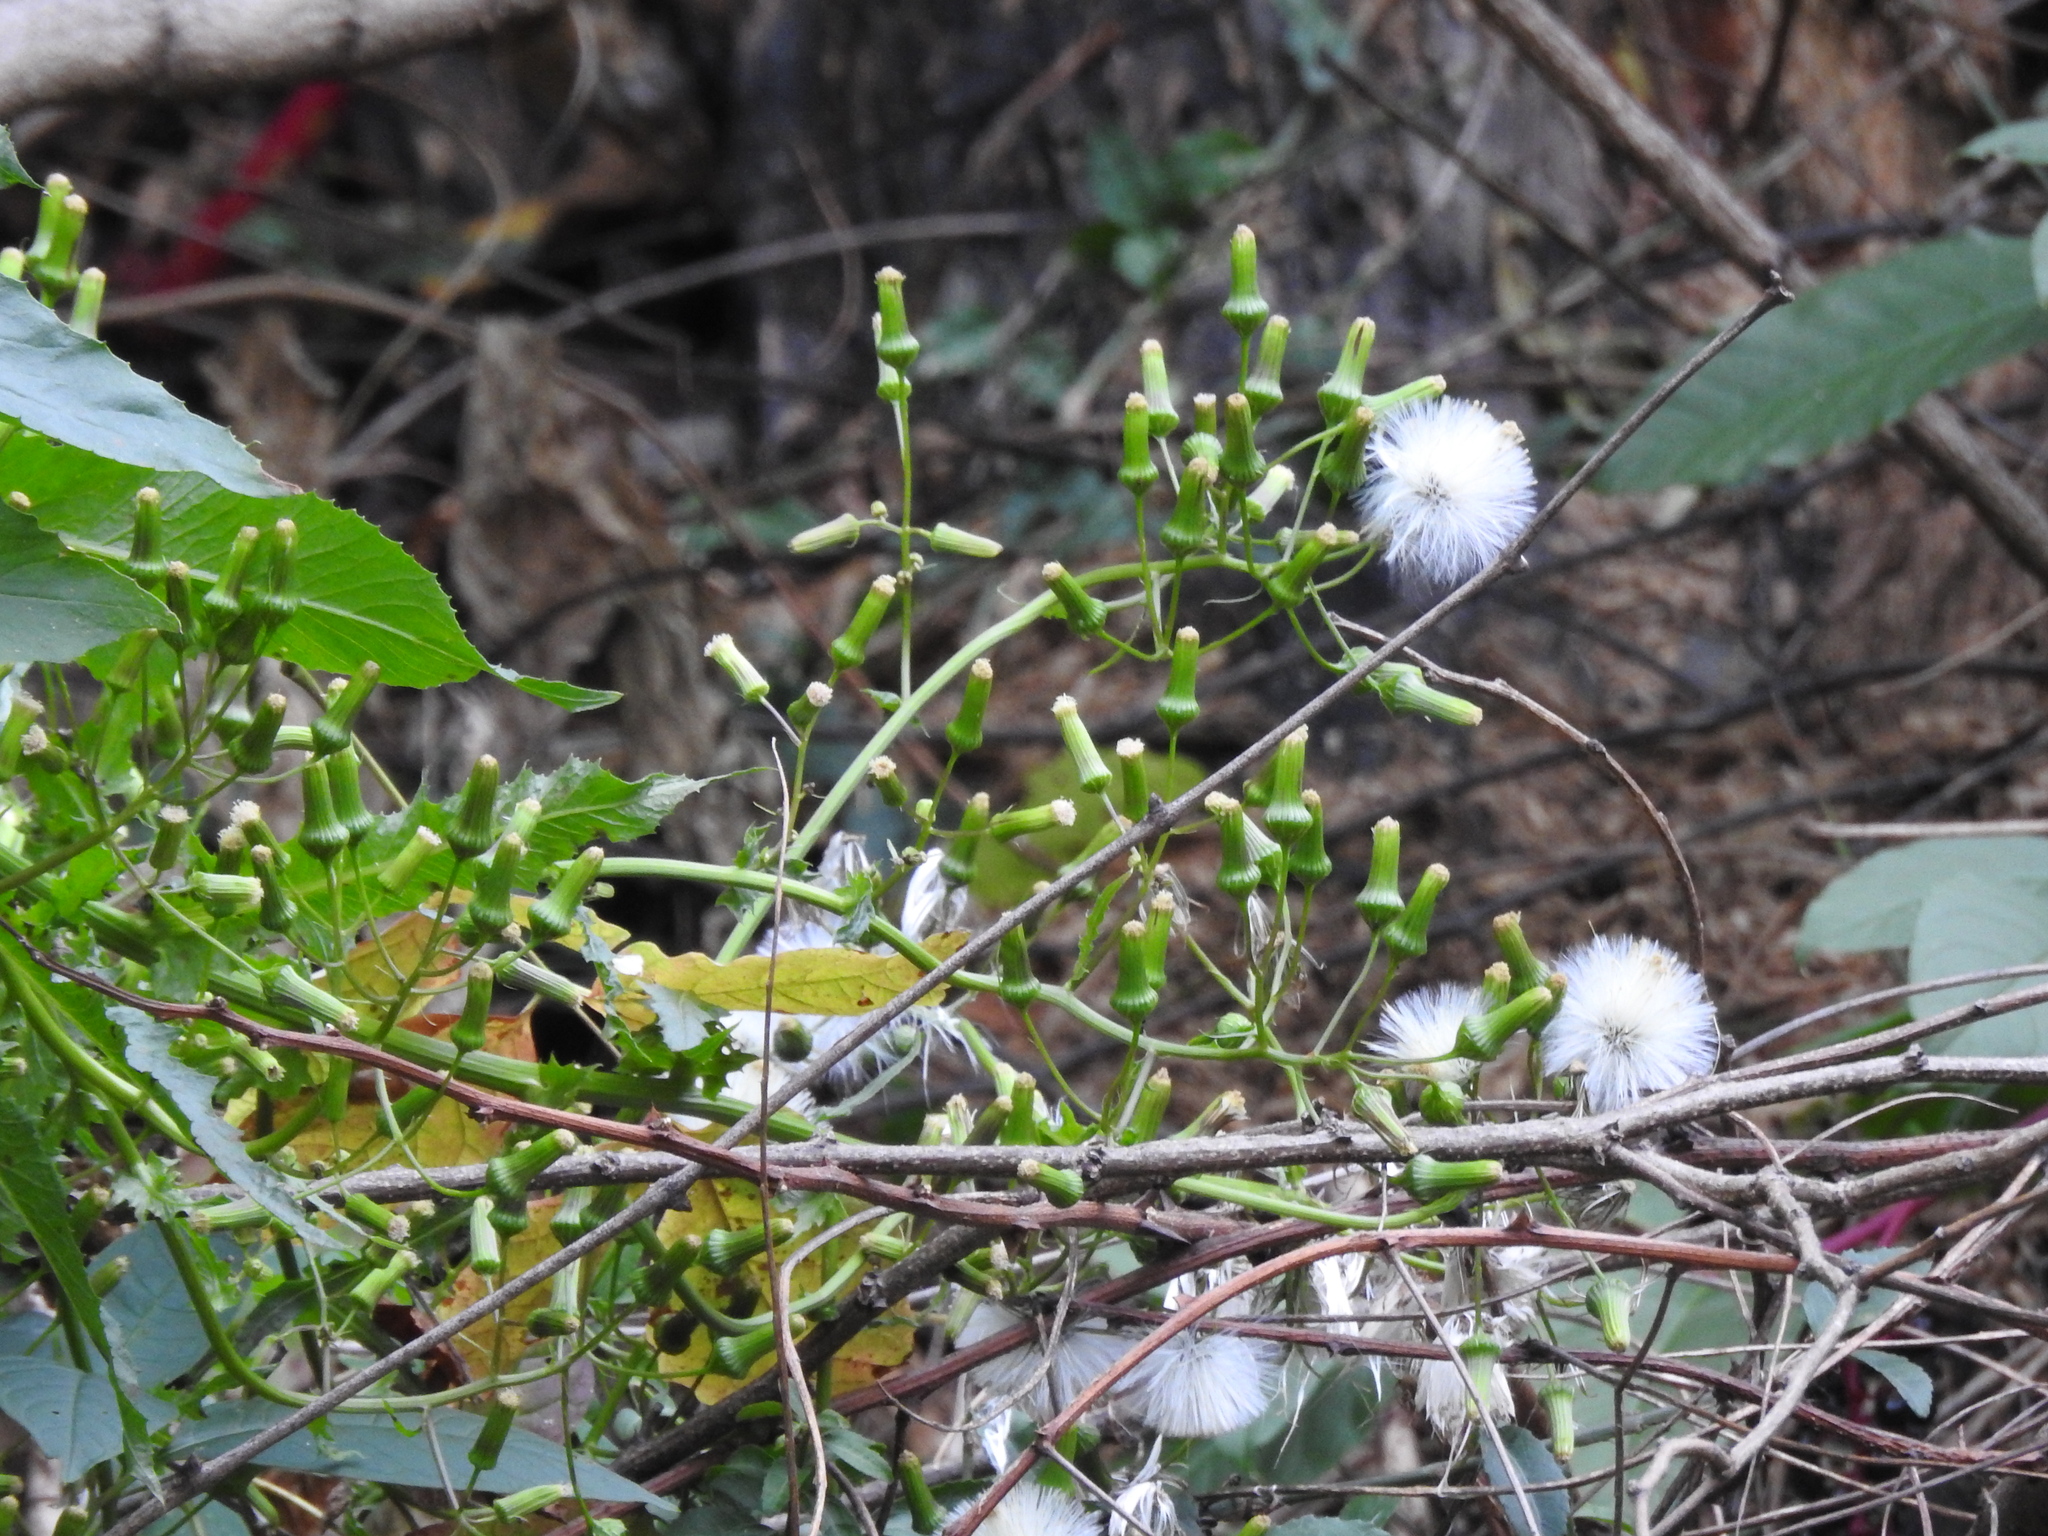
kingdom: Plantae
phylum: Tracheophyta
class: Magnoliopsida
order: Asterales
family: Asteraceae
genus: Erechtites
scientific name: Erechtites hieraciifolius
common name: American burnweed
